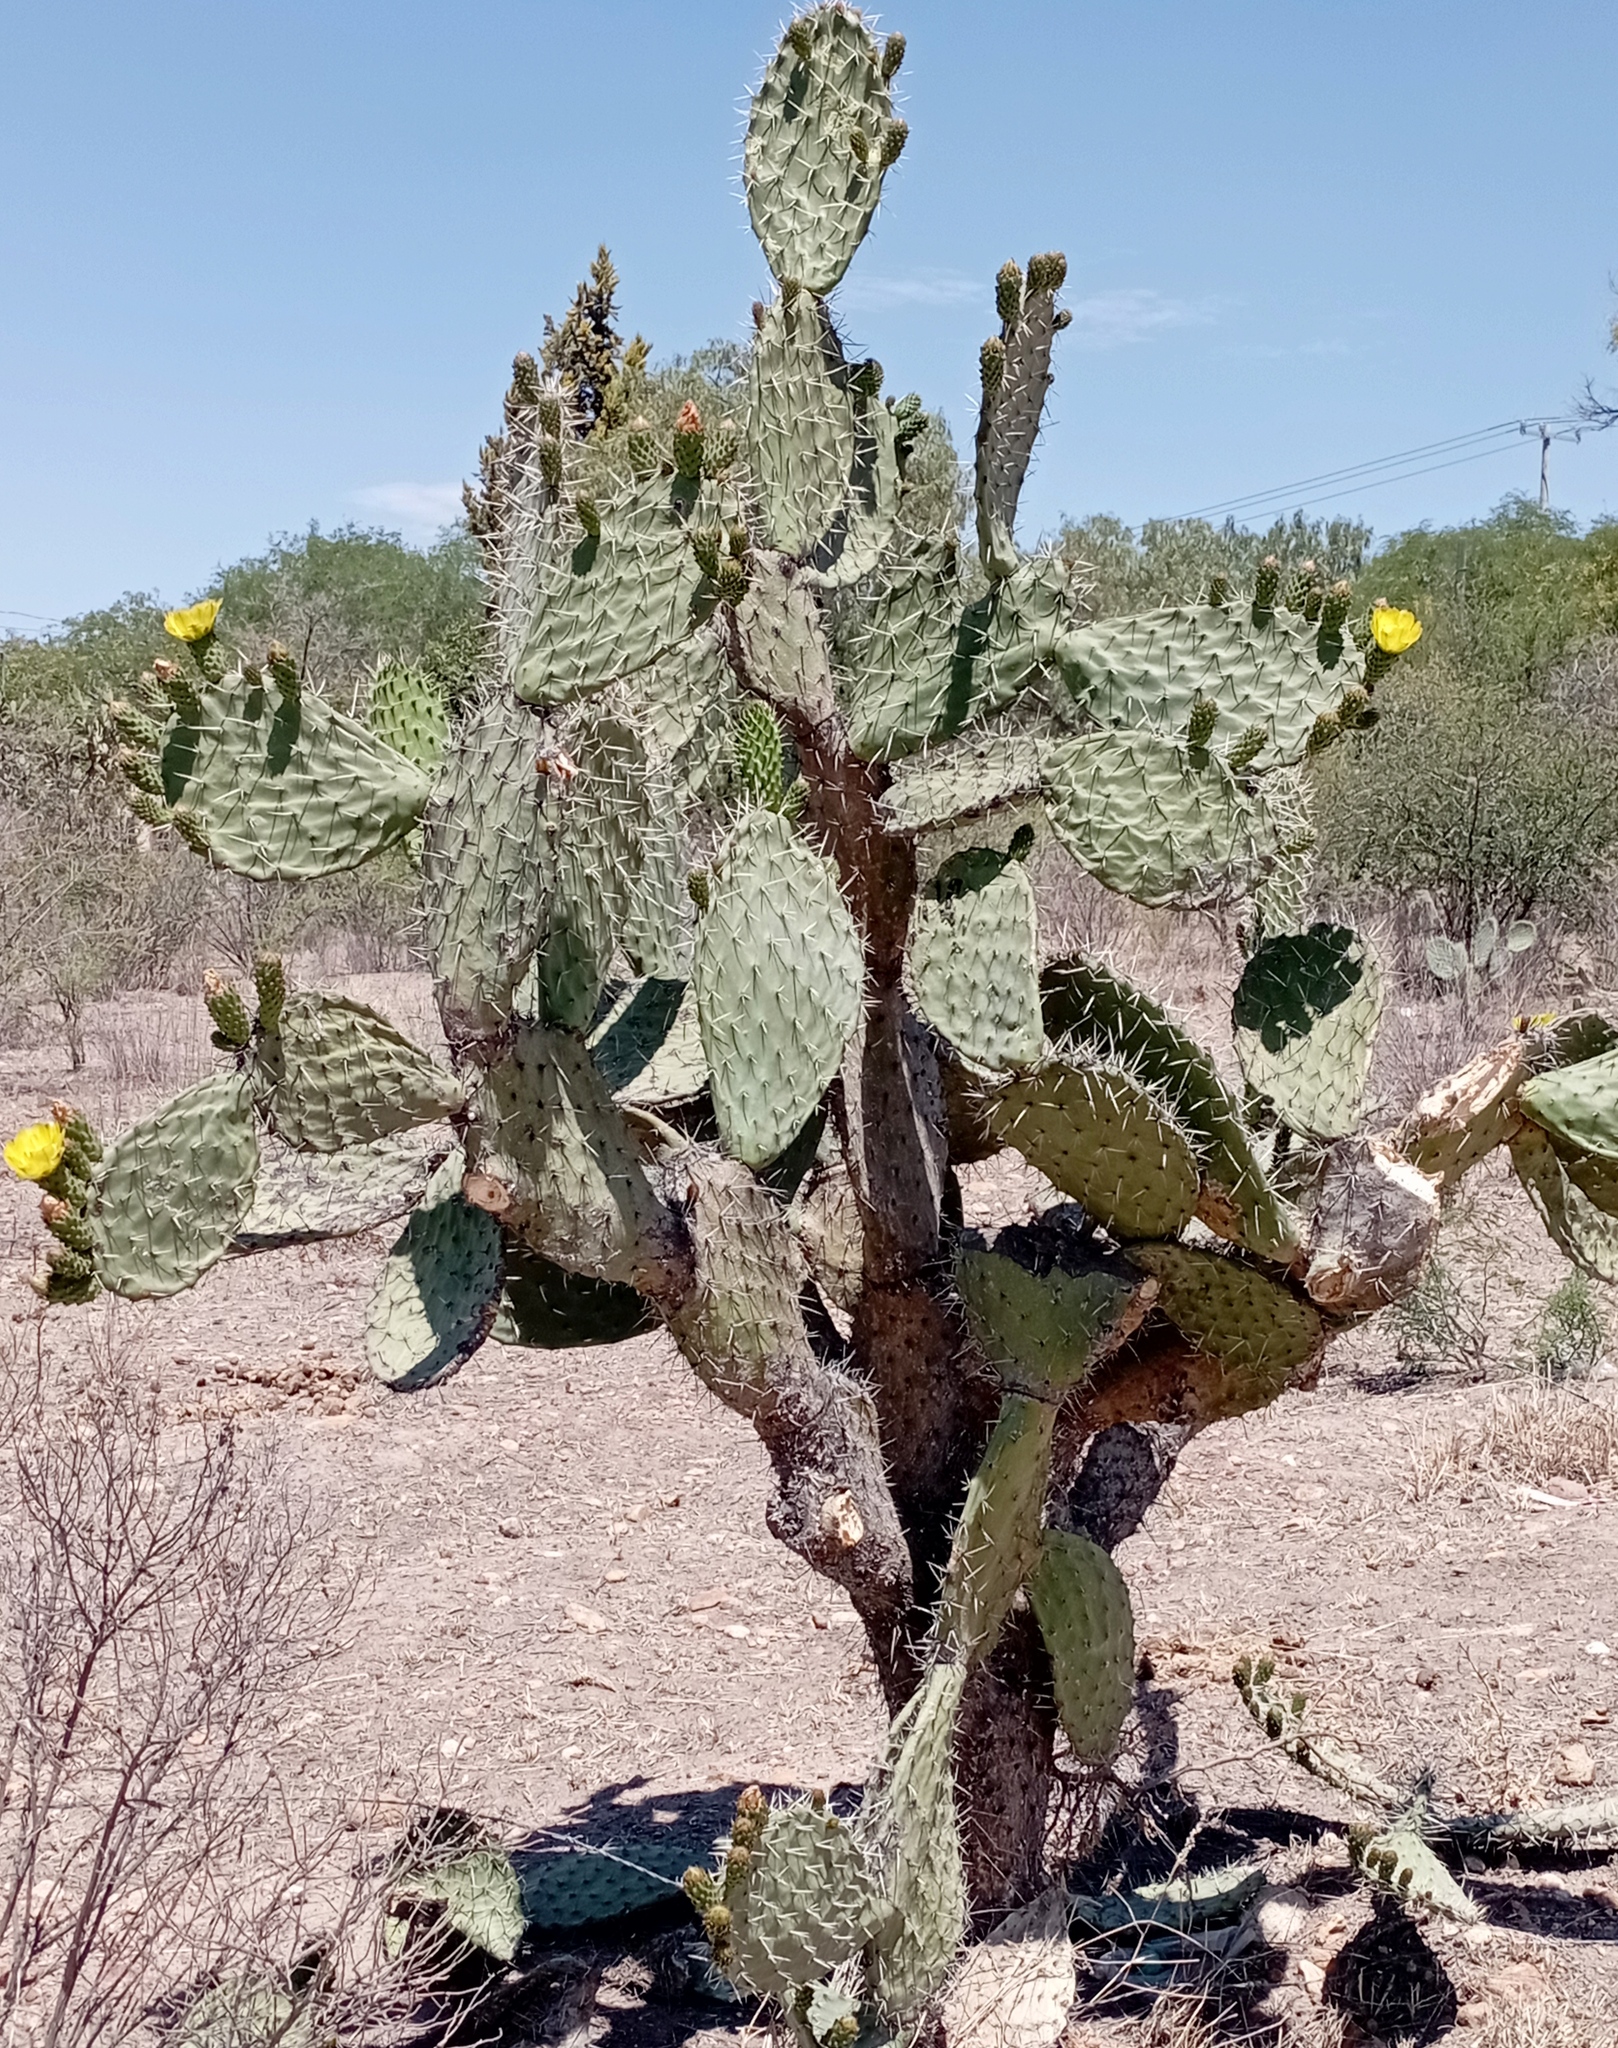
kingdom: Plantae
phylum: Tracheophyta
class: Magnoliopsida
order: Caryophyllales
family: Cactaceae
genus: Opuntia
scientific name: Opuntia lasiacantha
